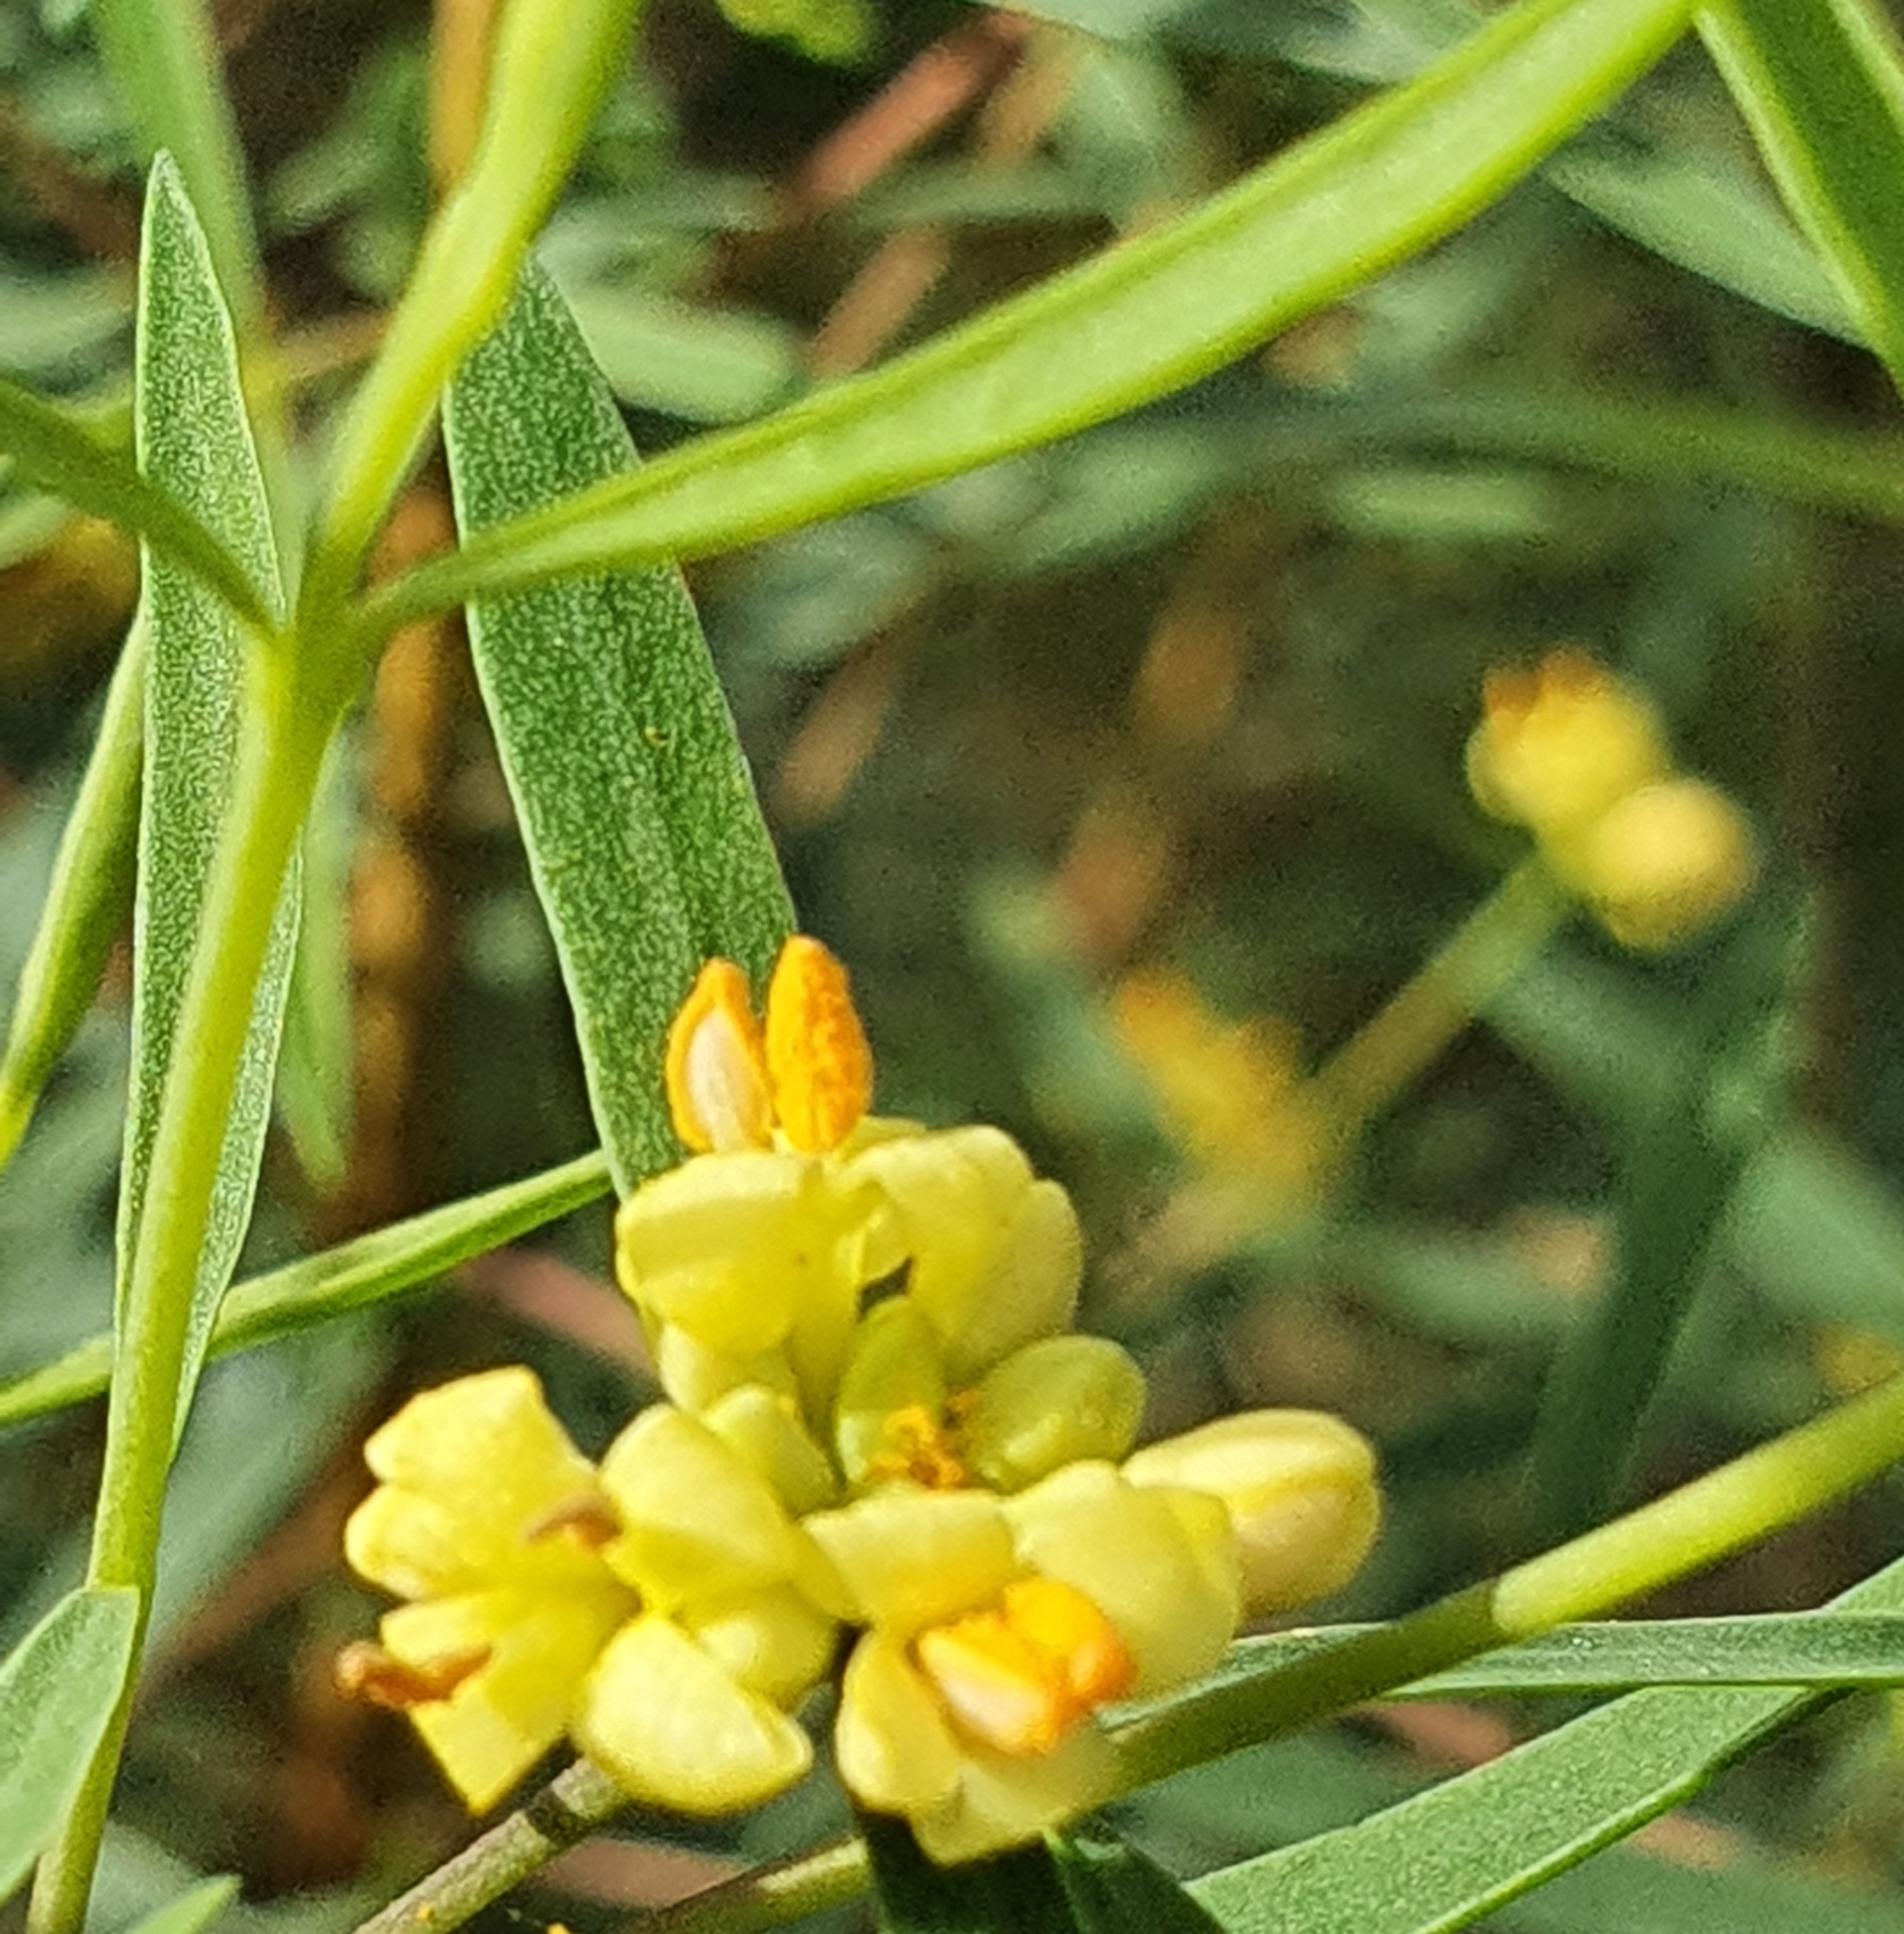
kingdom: Plantae
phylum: Tracheophyta
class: Magnoliopsida
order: Malvales
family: Thymelaeaceae
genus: Pimelea
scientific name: Pimelea neoanglica
